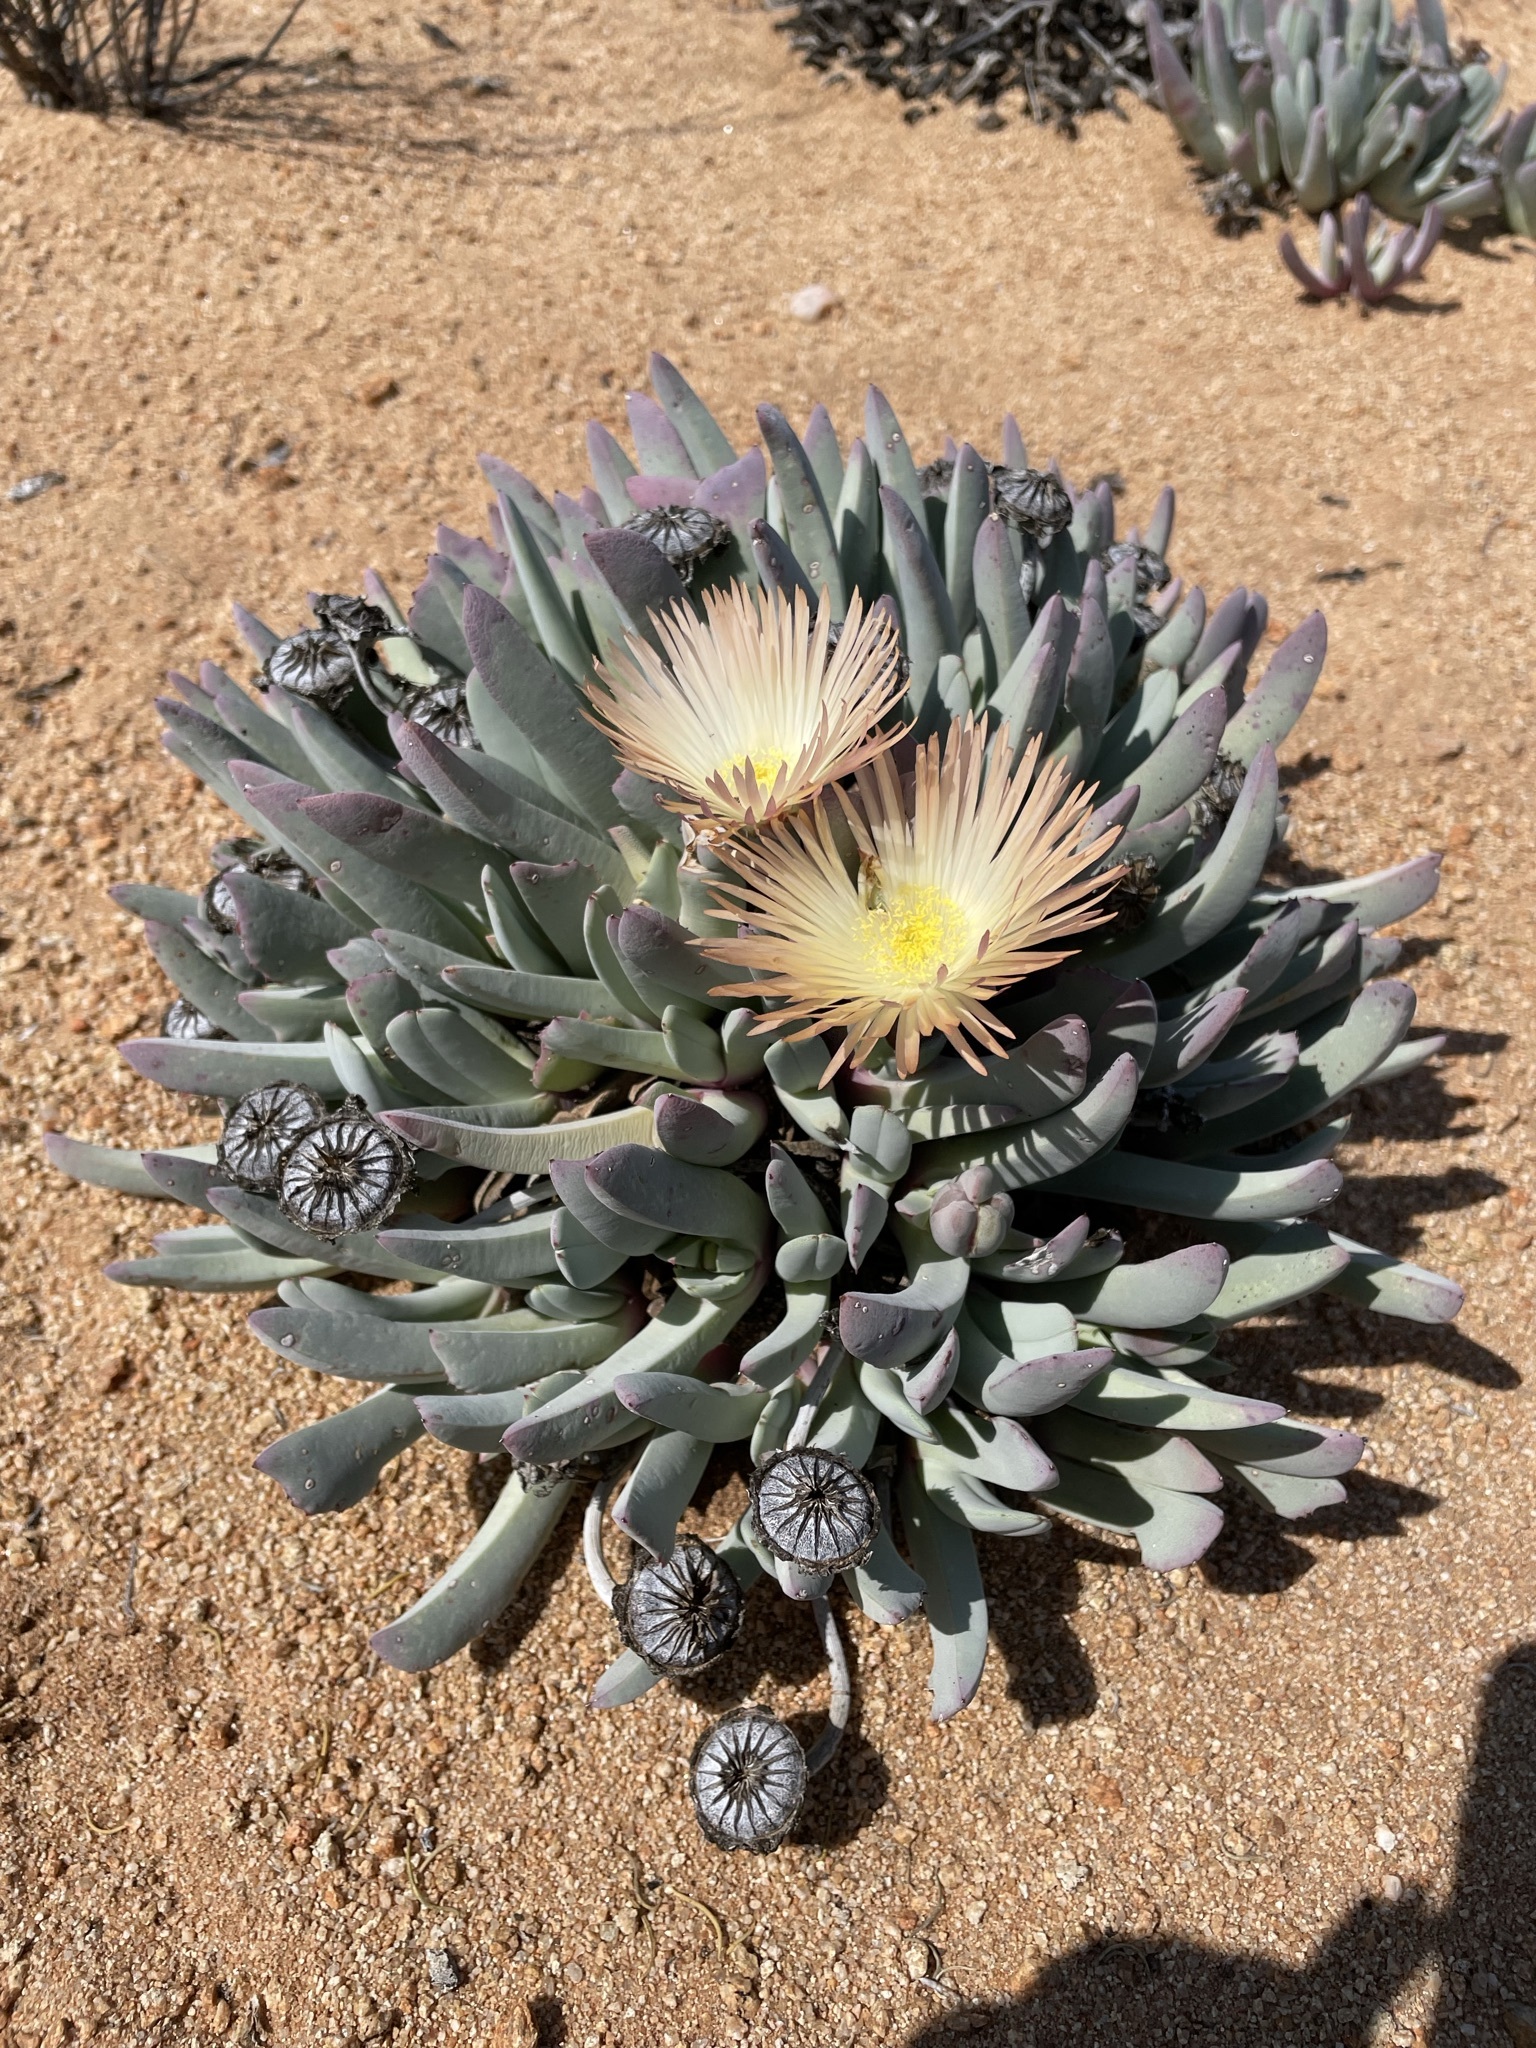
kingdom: Plantae
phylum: Tracheophyta
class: Magnoliopsida
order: Caryophyllales
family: Aizoaceae
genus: Cheiridopsis
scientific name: Cheiridopsis denticulata
